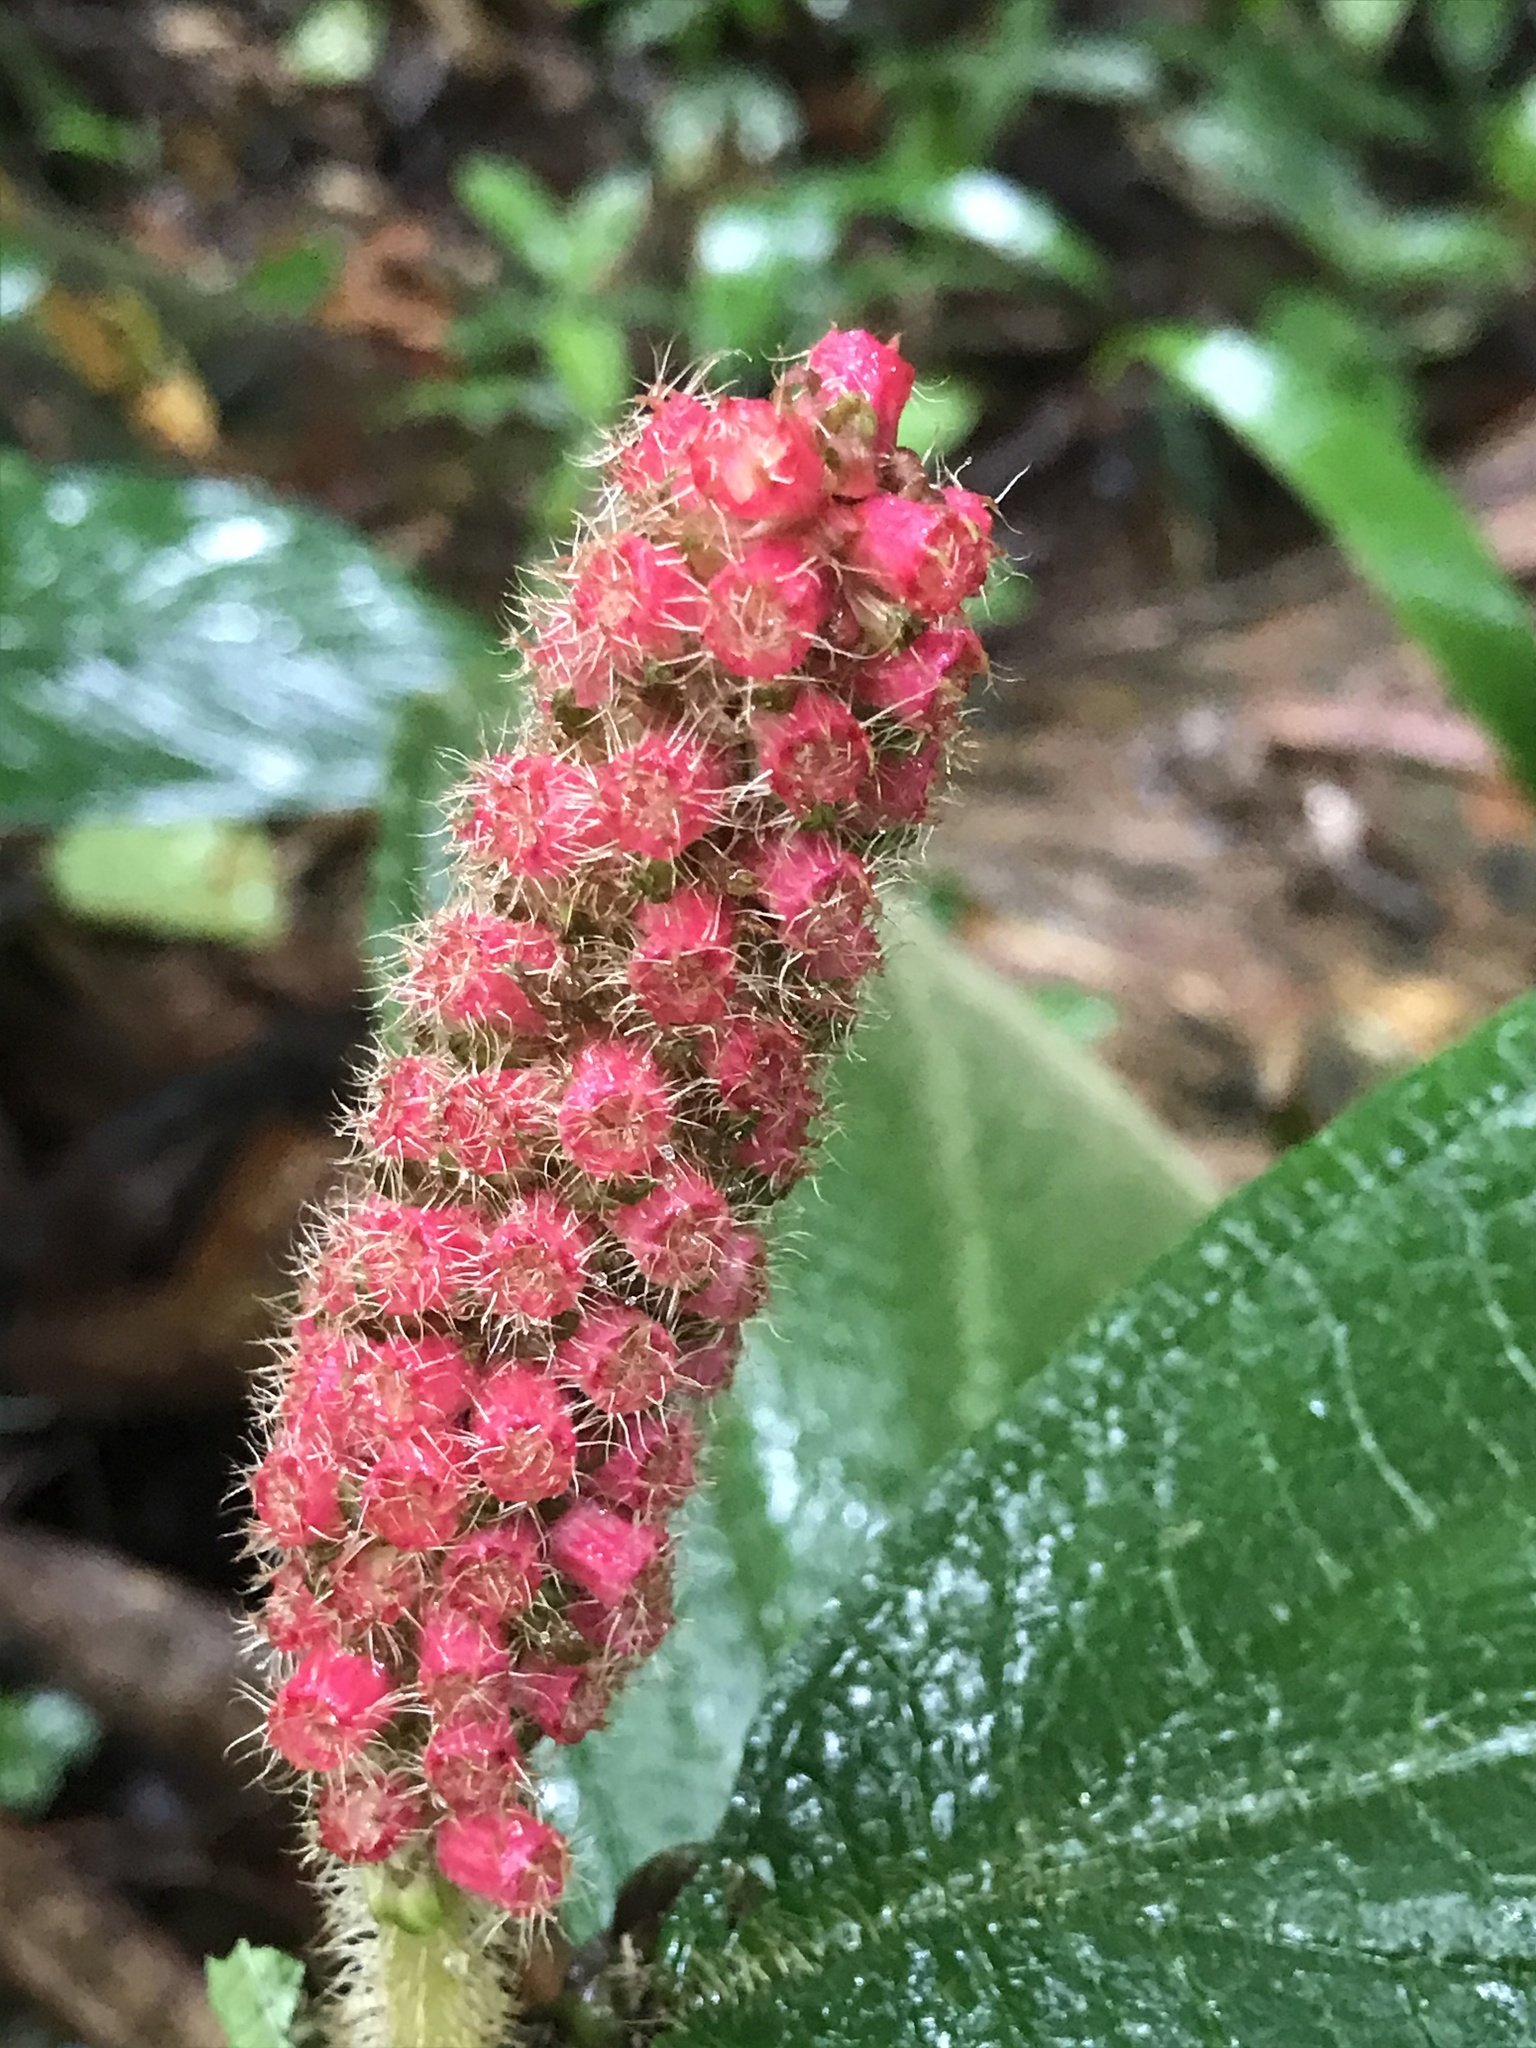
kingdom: Plantae
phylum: Tracheophyta
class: Magnoliopsida
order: Myrtales
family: Melastomataceae
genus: Miconia
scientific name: Miconia spadiciflora
